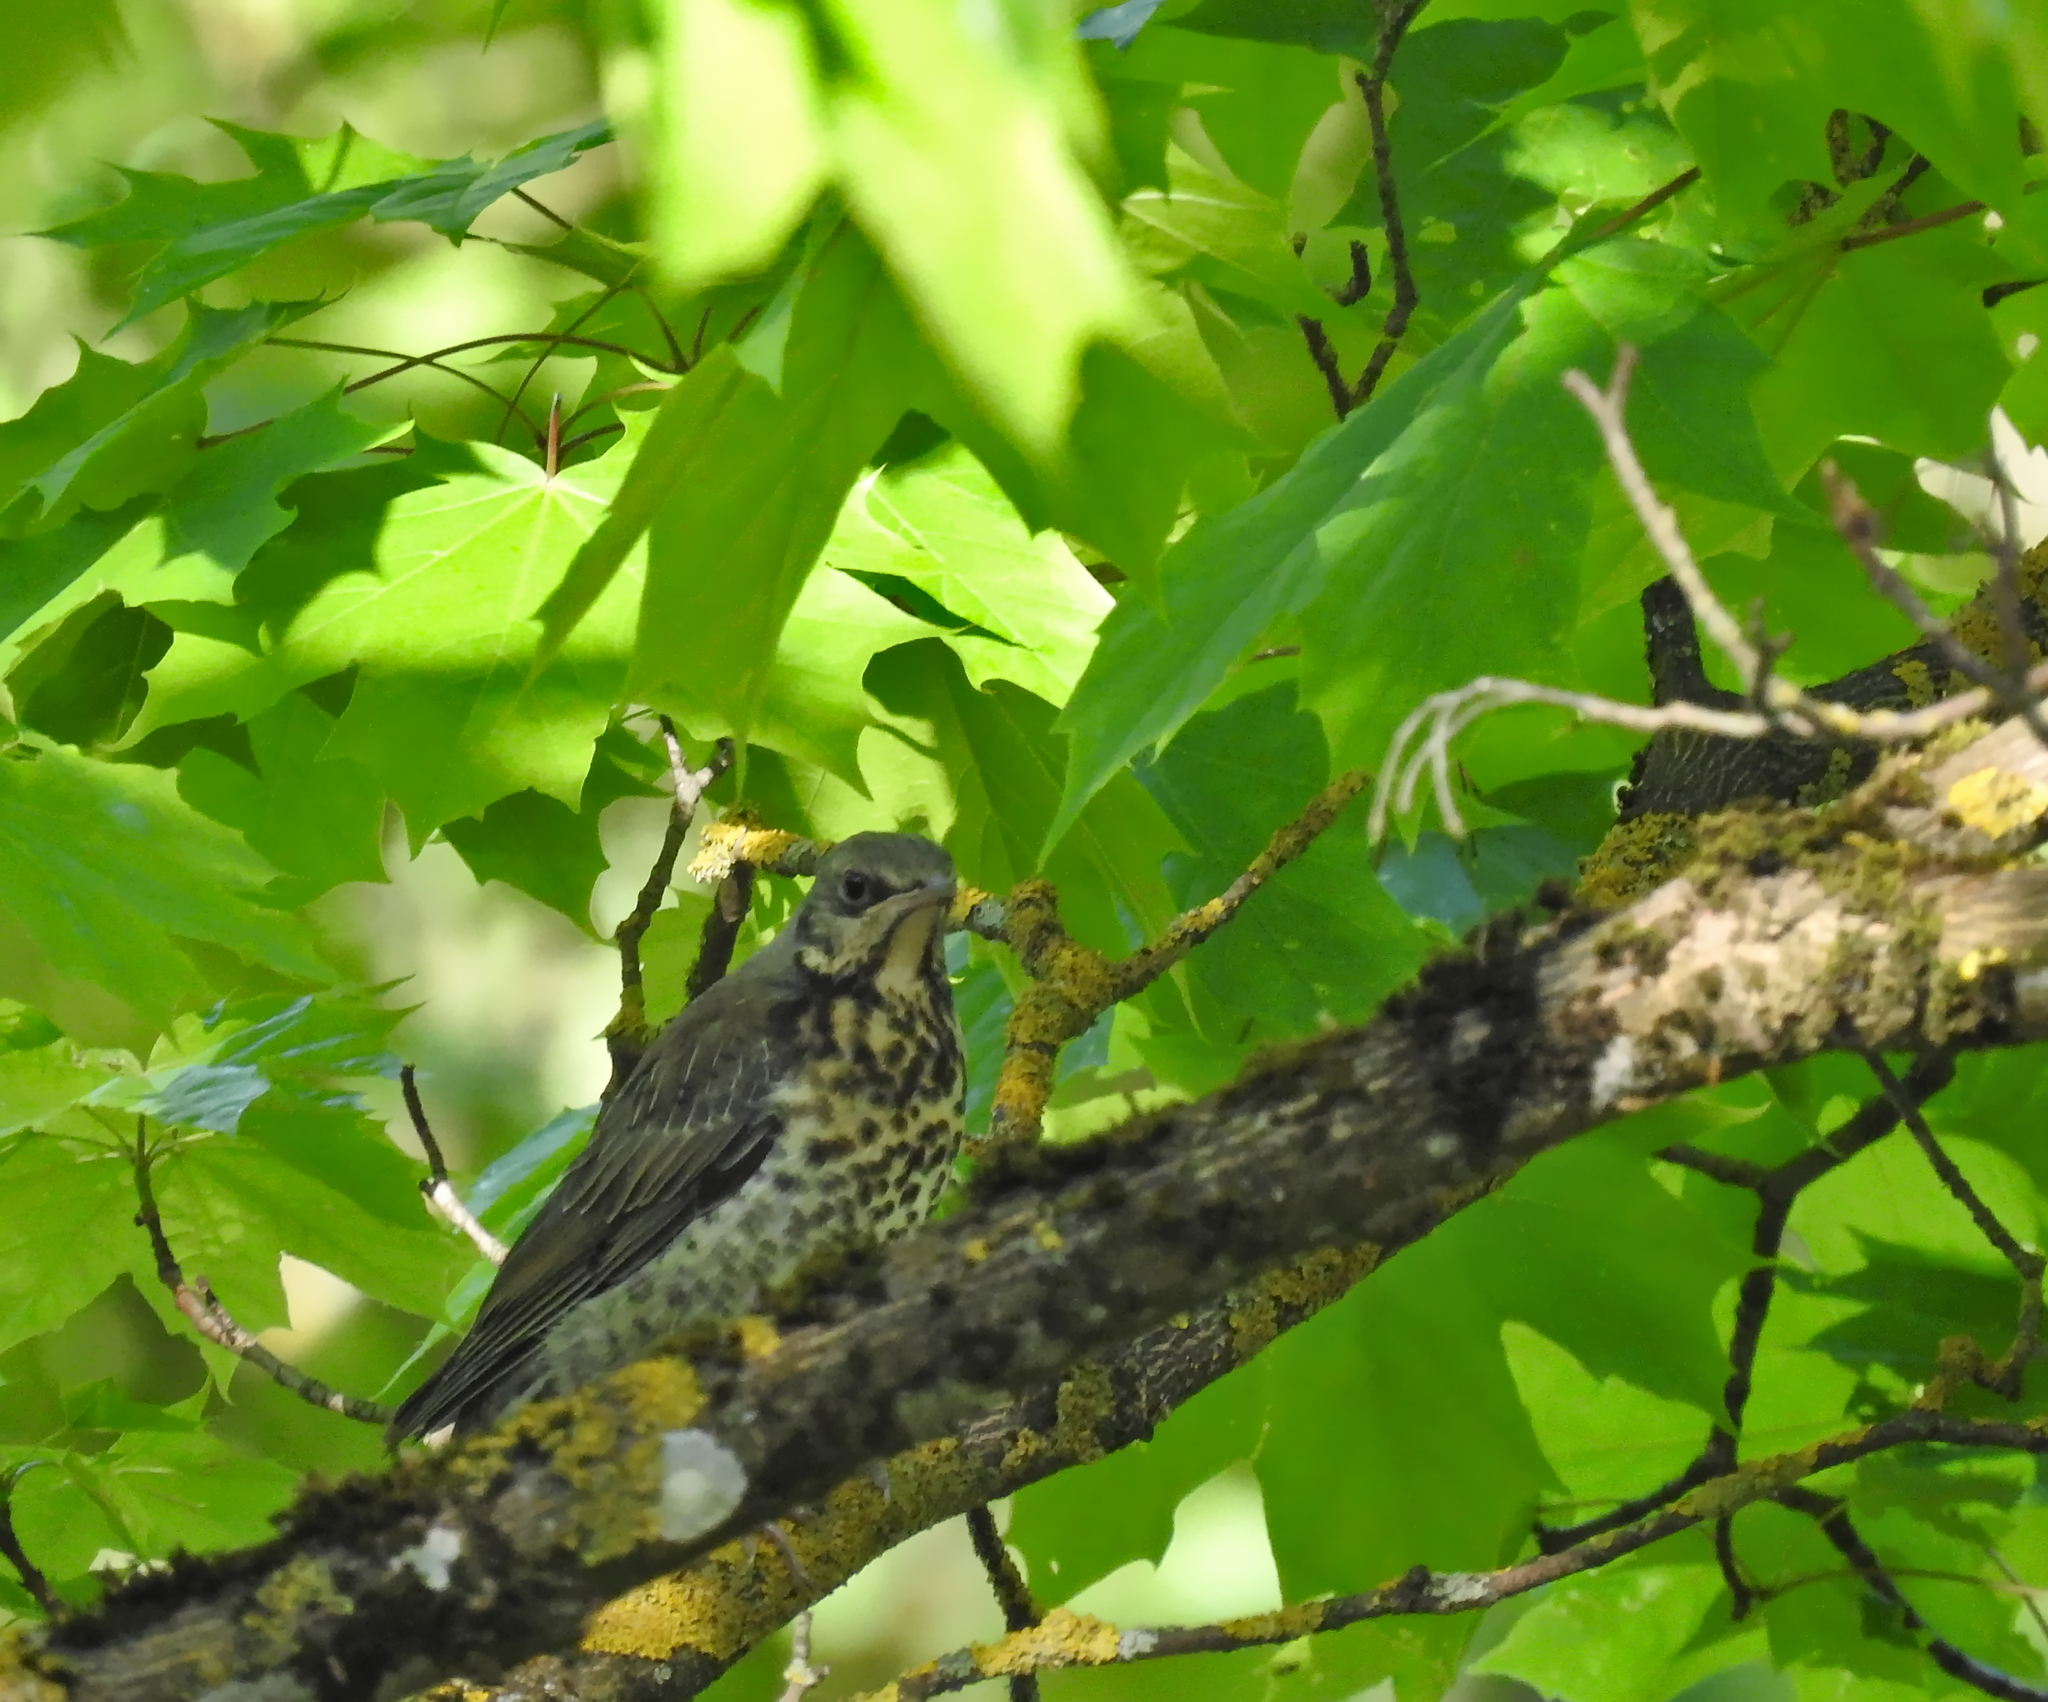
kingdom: Animalia
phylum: Chordata
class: Aves
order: Passeriformes
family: Turdidae
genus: Turdus
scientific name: Turdus pilaris
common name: Fieldfare
